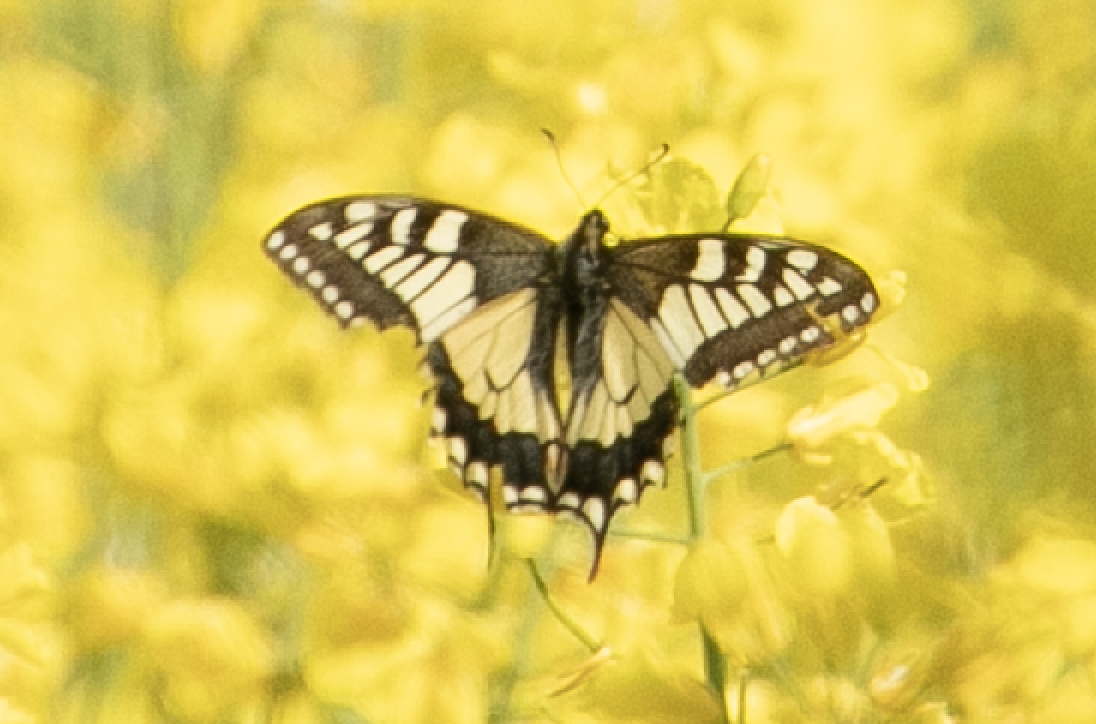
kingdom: Animalia
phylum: Arthropoda
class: Insecta
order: Lepidoptera
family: Papilionidae
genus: Papilio
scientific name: Papilio machaon
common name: Swallowtail
